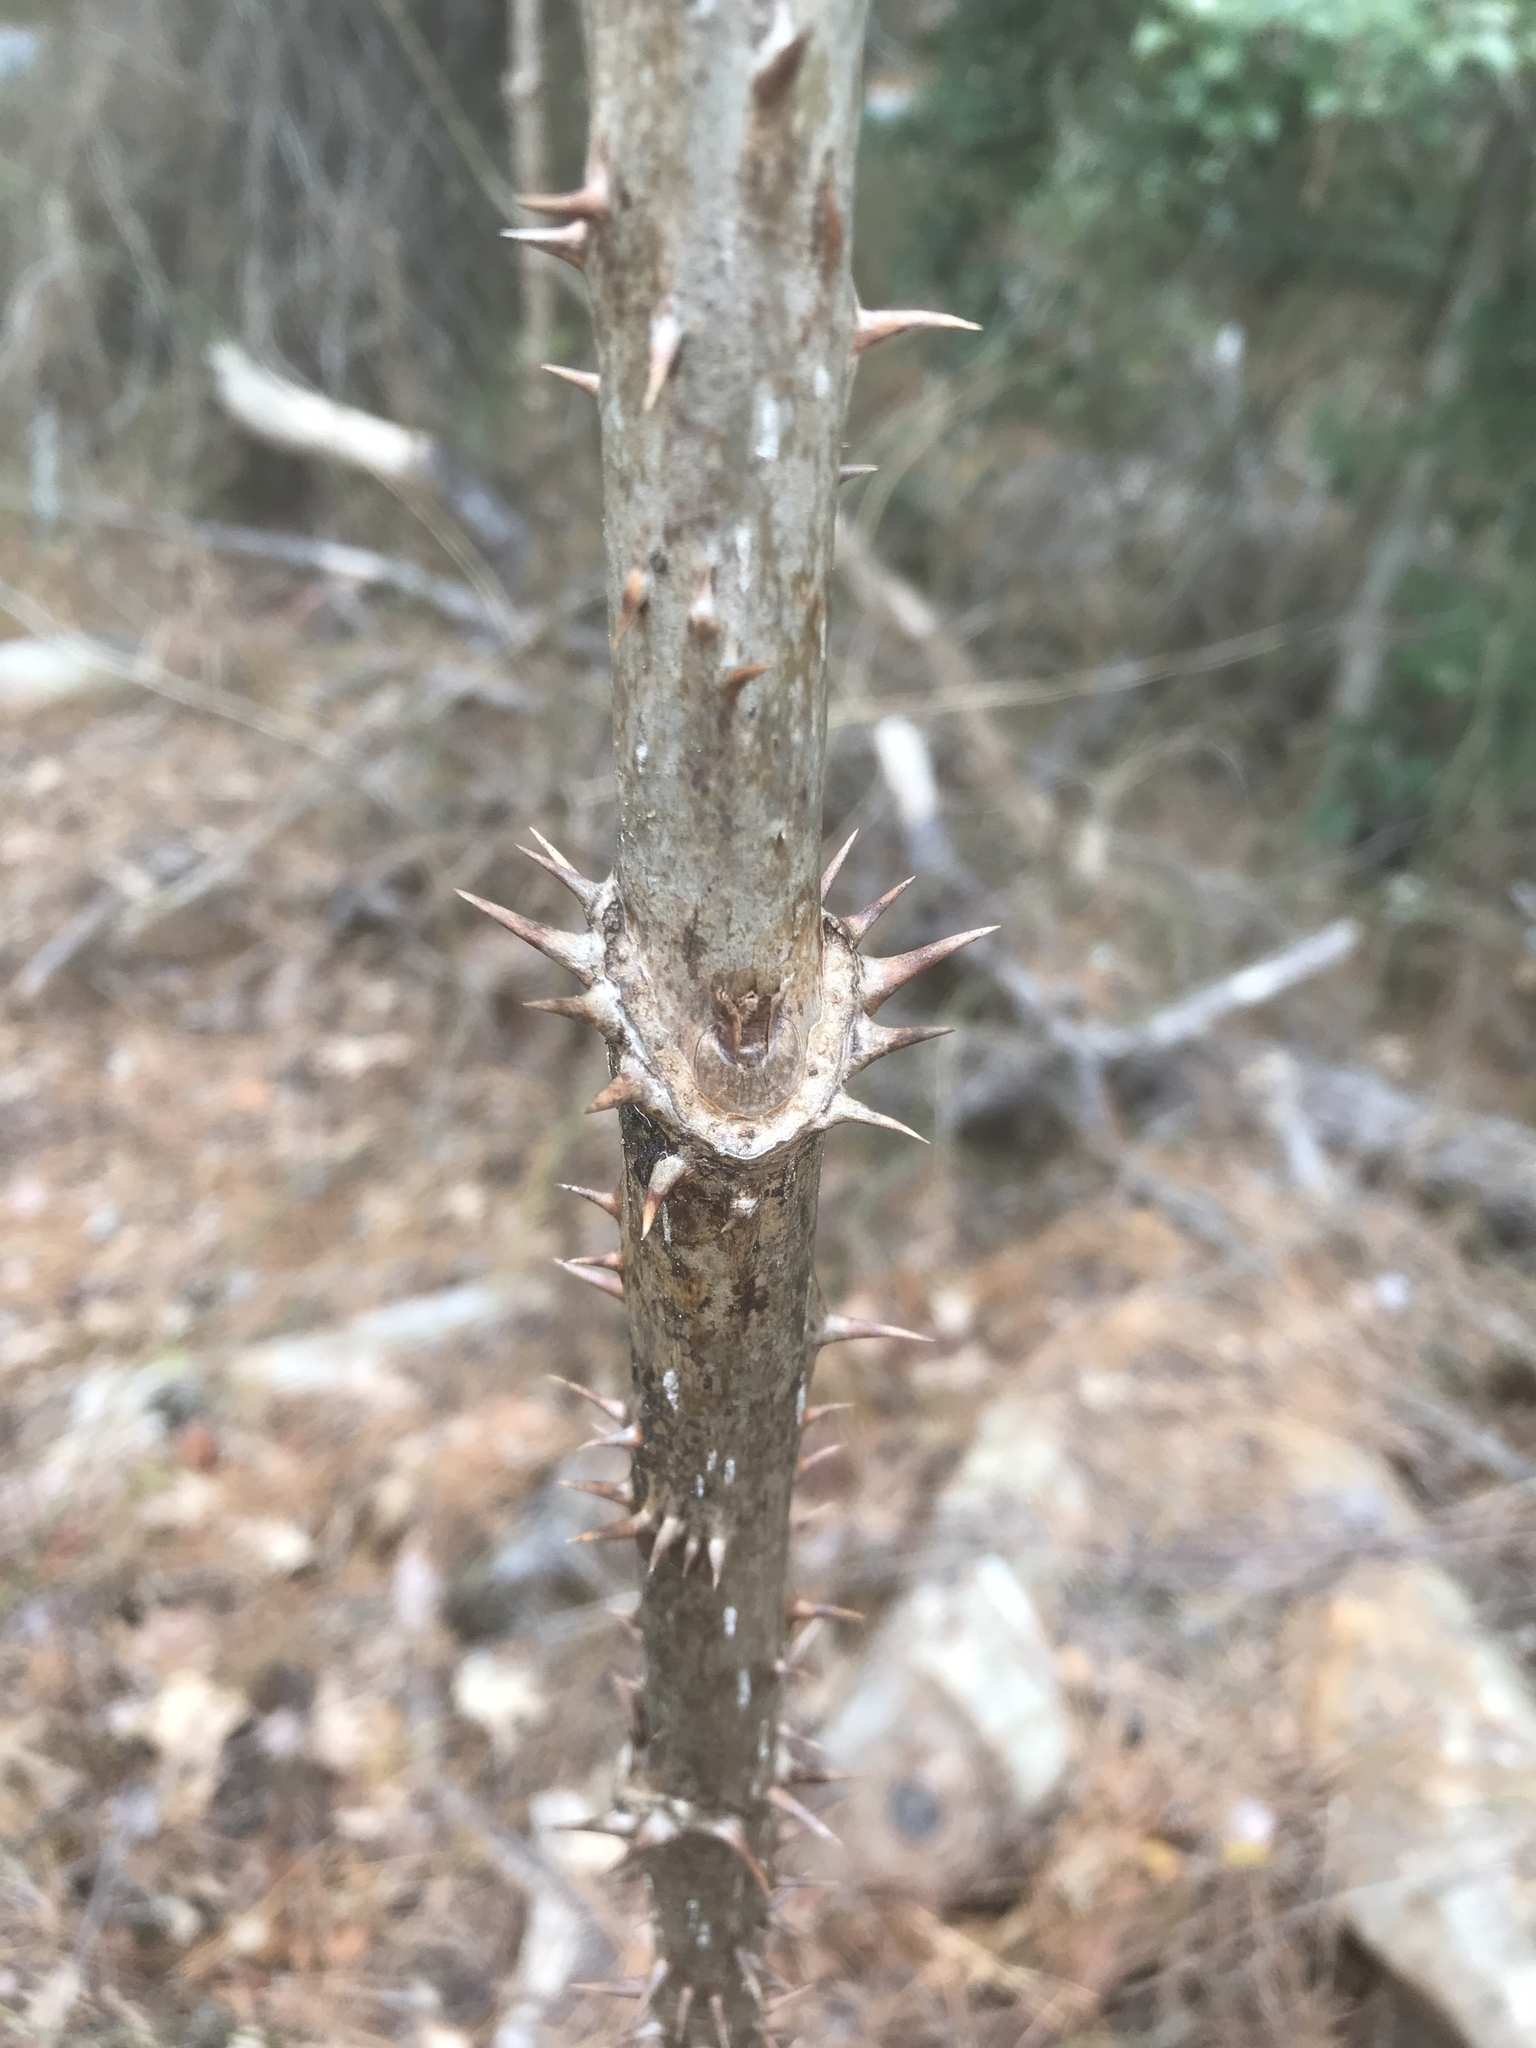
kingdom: Plantae
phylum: Tracheophyta
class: Magnoliopsida
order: Apiales
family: Araliaceae
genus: Aralia
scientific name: Aralia spinosa
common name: Hercules'-club
